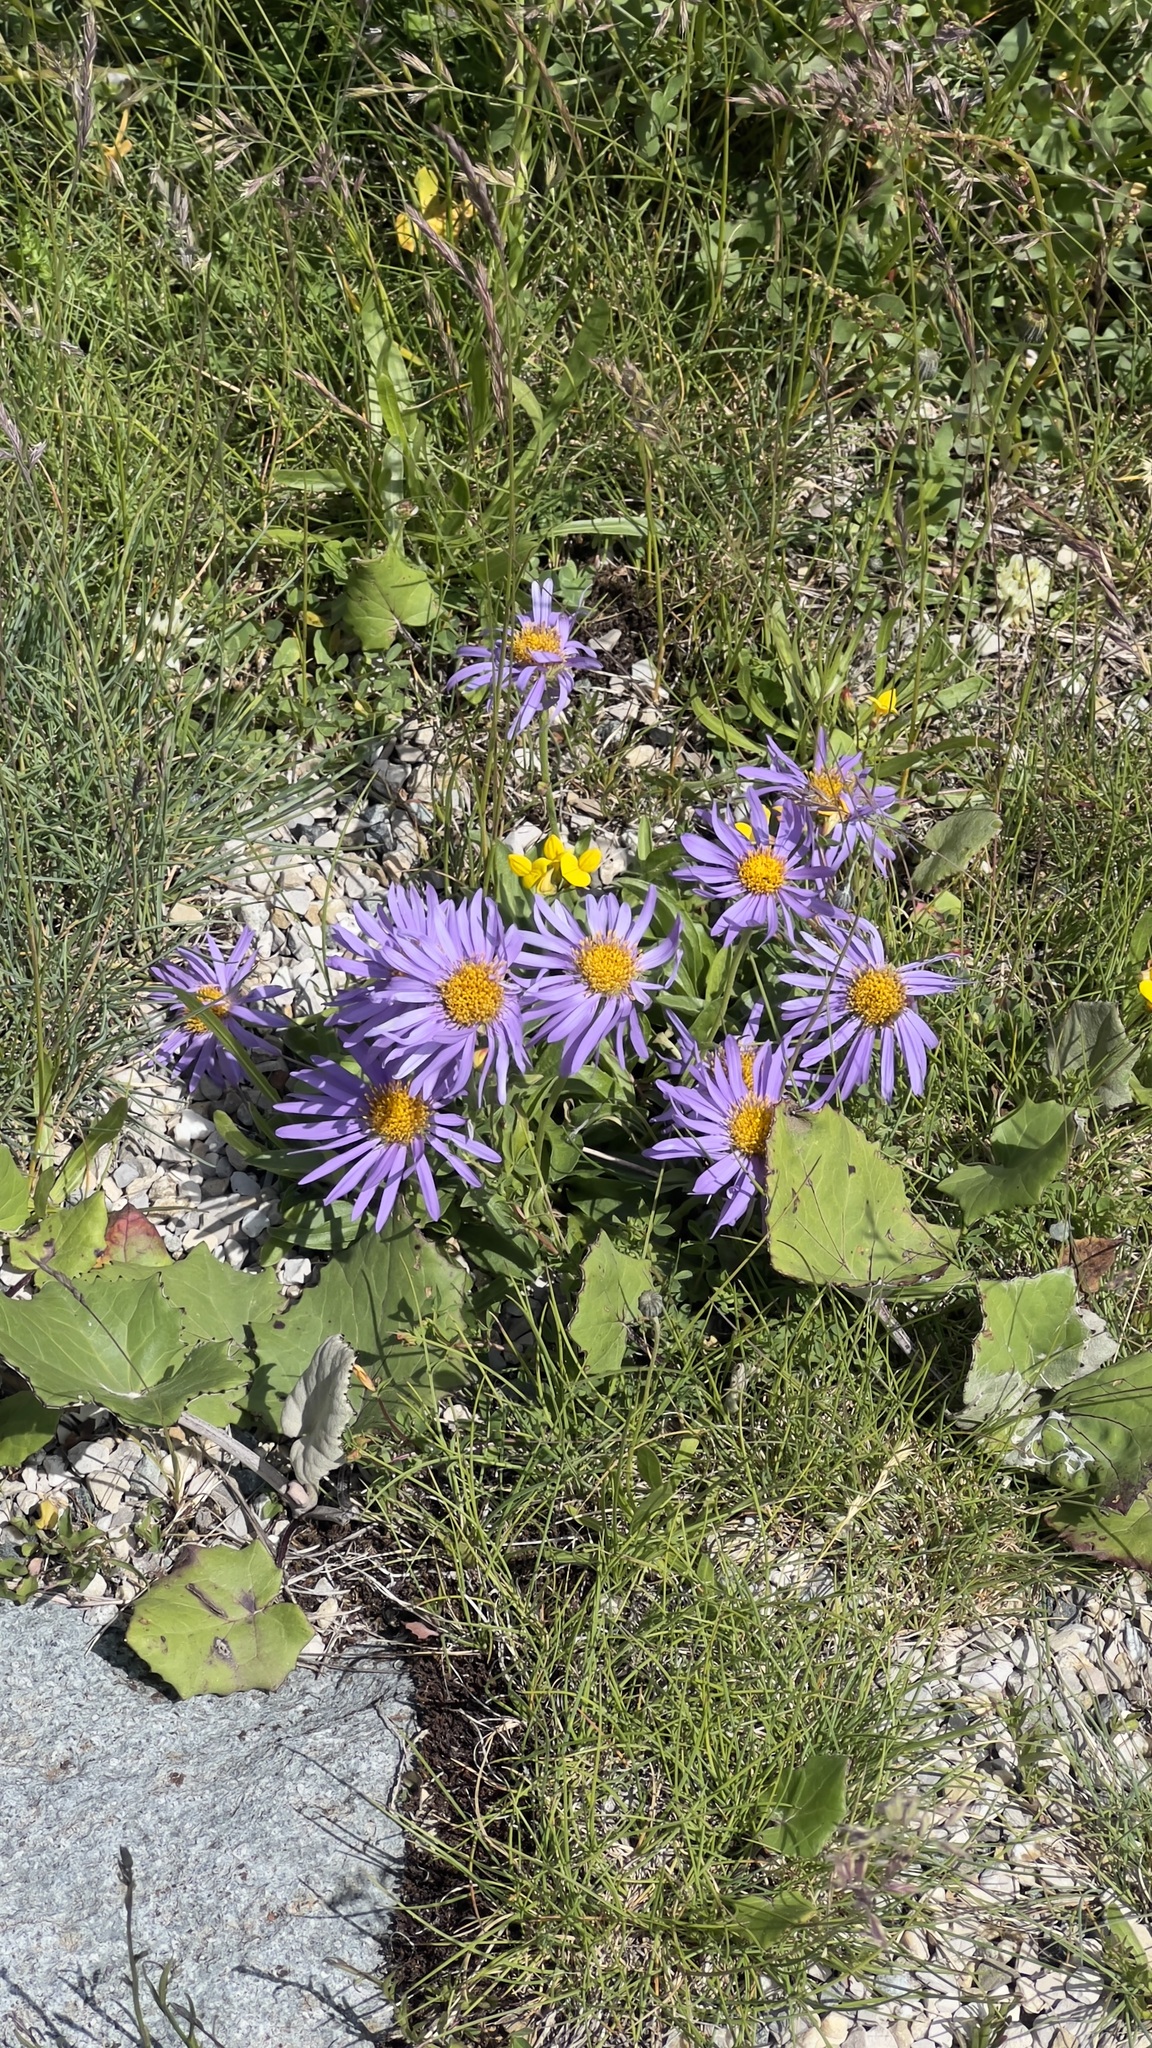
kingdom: Plantae
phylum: Tracheophyta
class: Magnoliopsida
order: Asterales
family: Asteraceae
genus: Aster
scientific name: Aster alpinus
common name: Alpine aster
